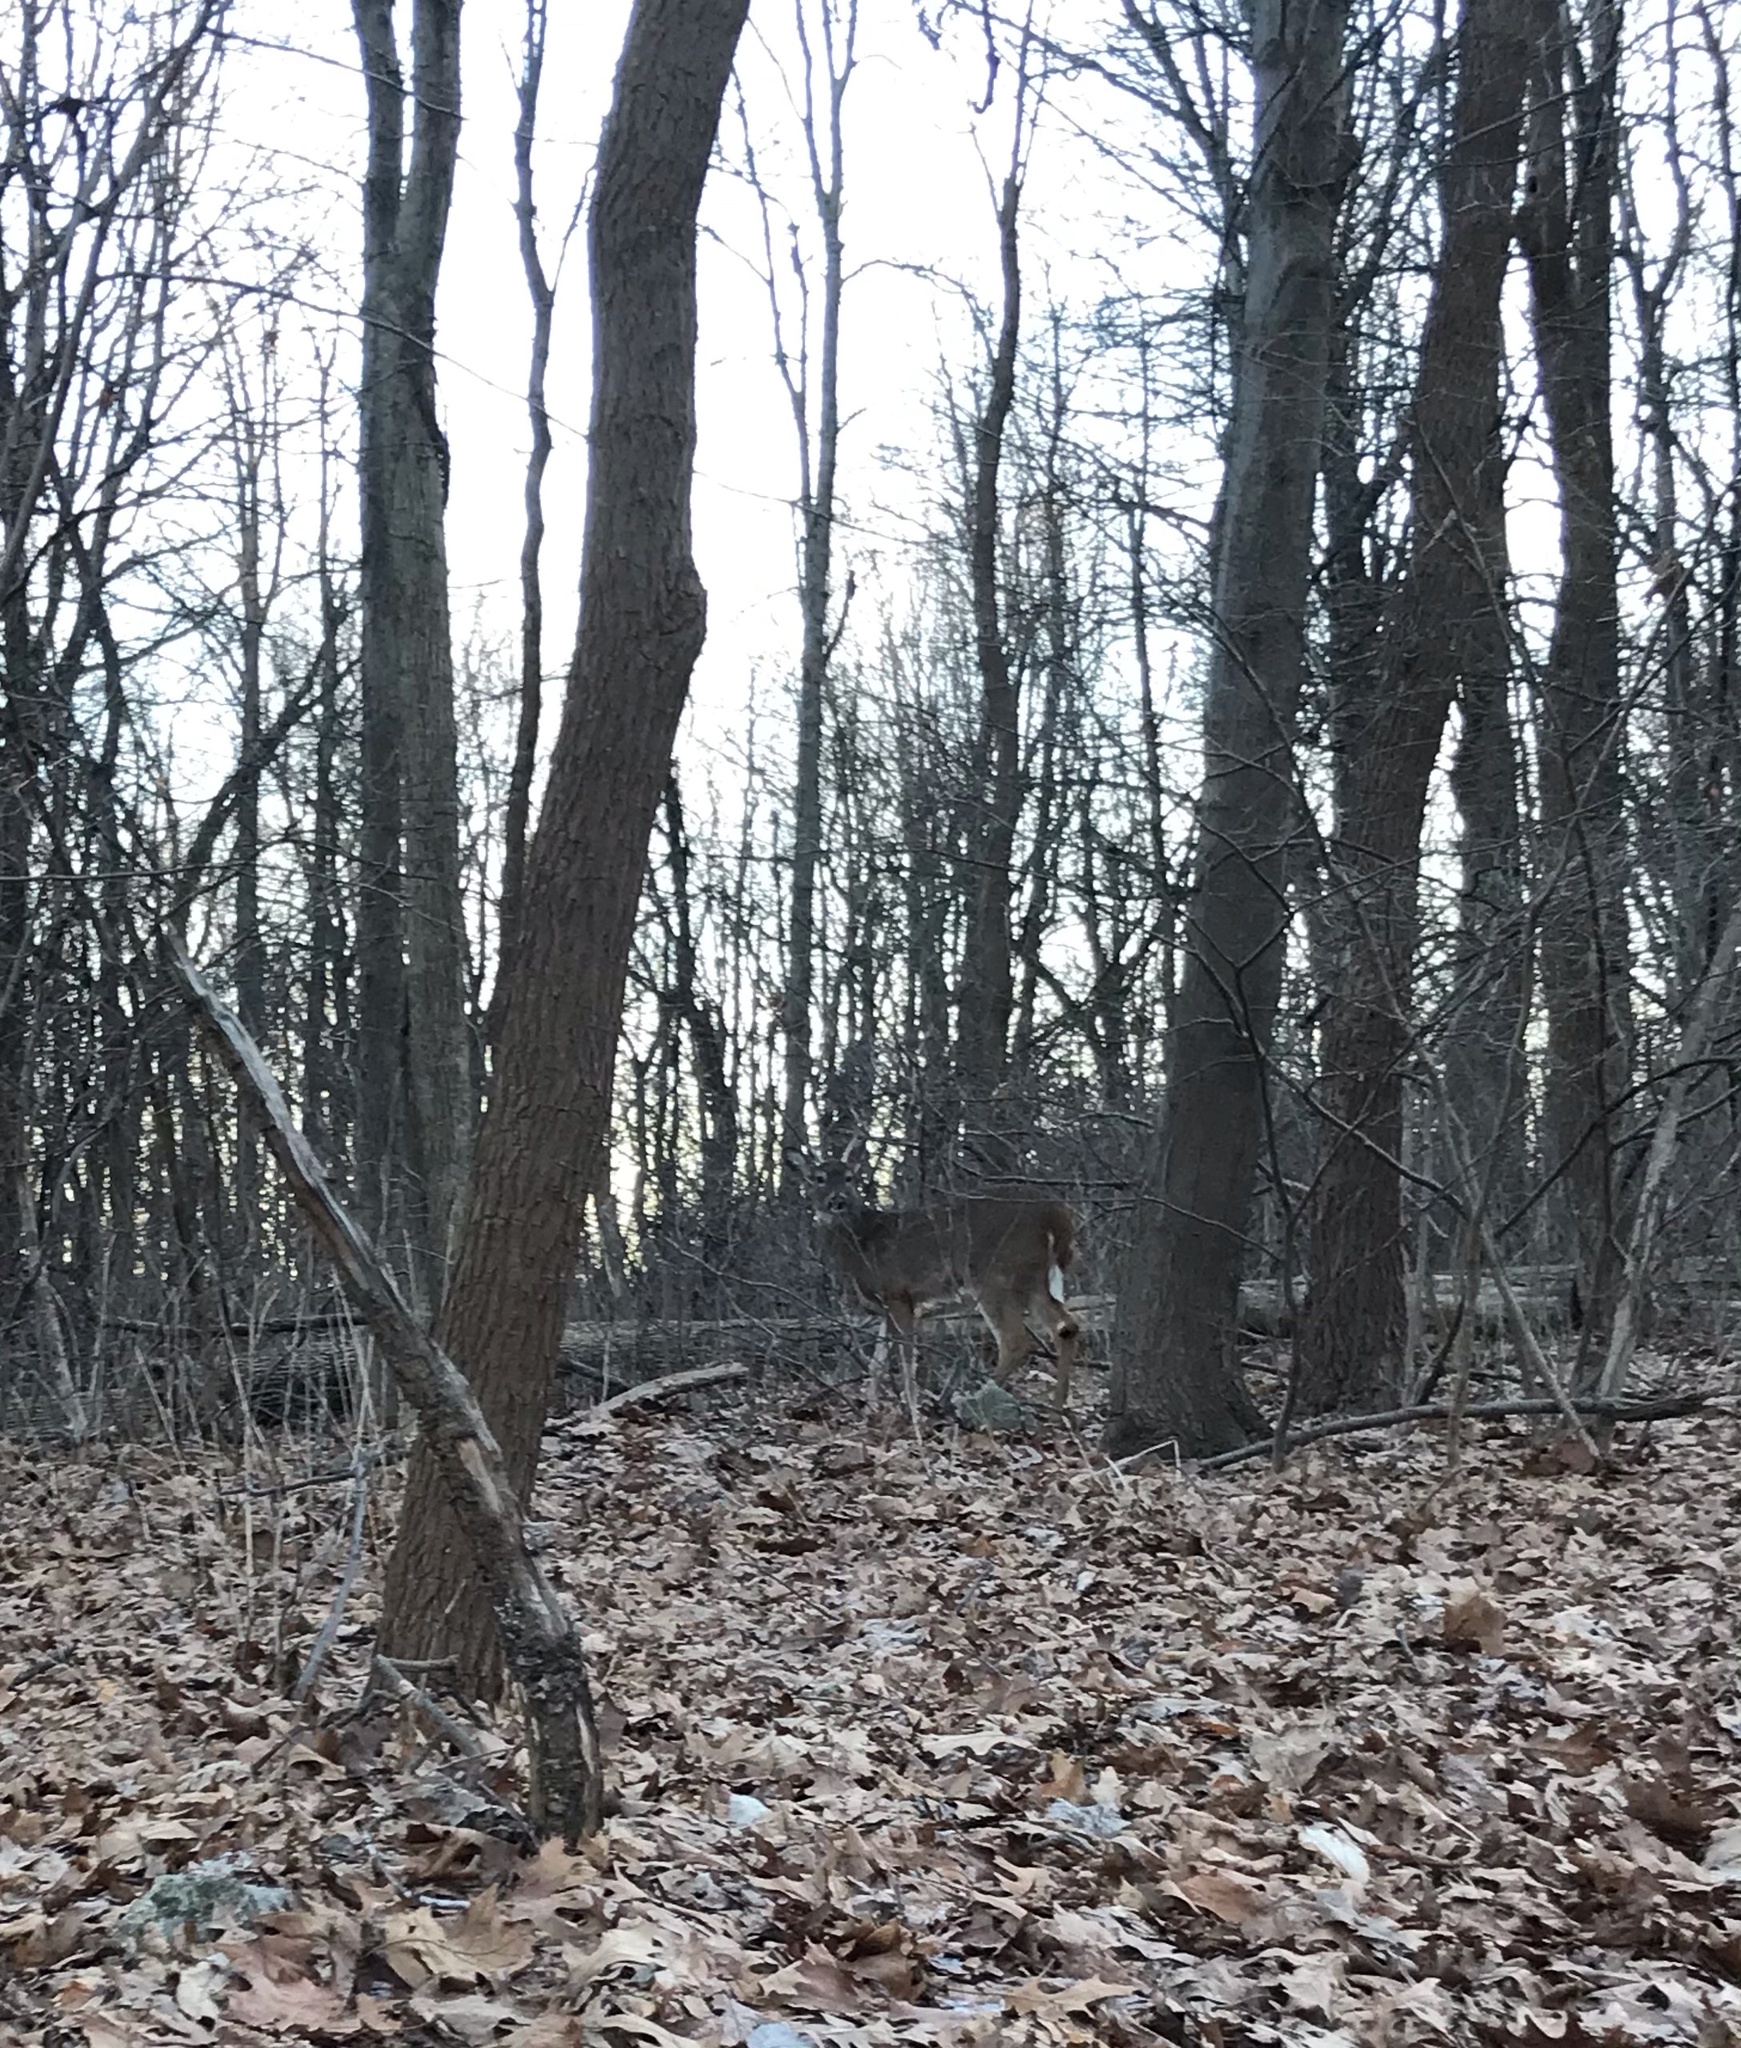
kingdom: Animalia
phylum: Chordata
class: Mammalia
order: Artiodactyla
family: Cervidae
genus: Odocoileus
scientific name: Odocoileus virginianus
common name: White-tailed deer
